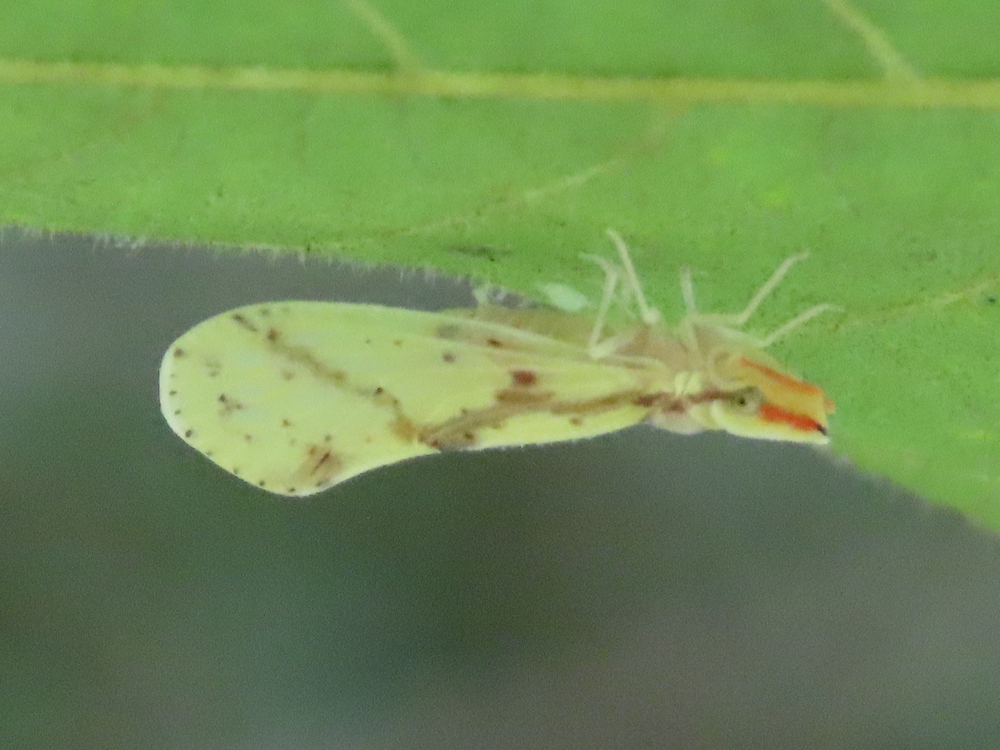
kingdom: Animalia
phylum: Arthropoda
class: Insecta
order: Hemiptera
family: Derbidae
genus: Otiocerus
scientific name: Otiocerus wolfii
